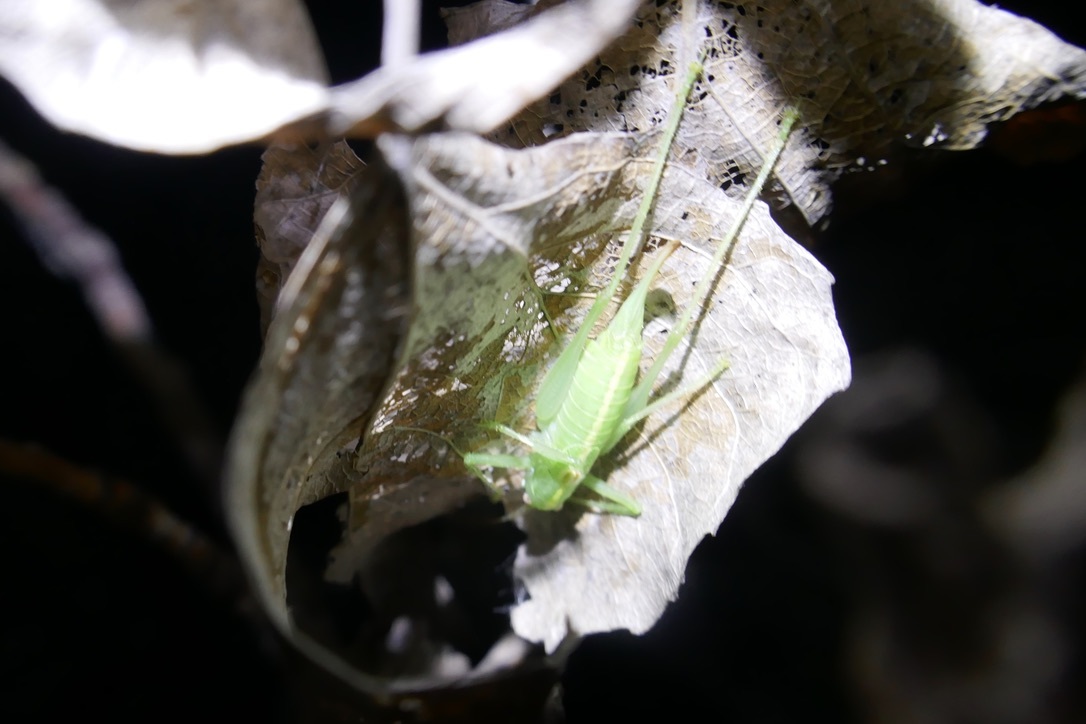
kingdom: Animalia
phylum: Arthropoda
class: Insecta
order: Orthoptera
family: Tettigoniidae
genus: Meconema
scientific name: Meconema meridionale
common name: Southern oak bush-cricket
